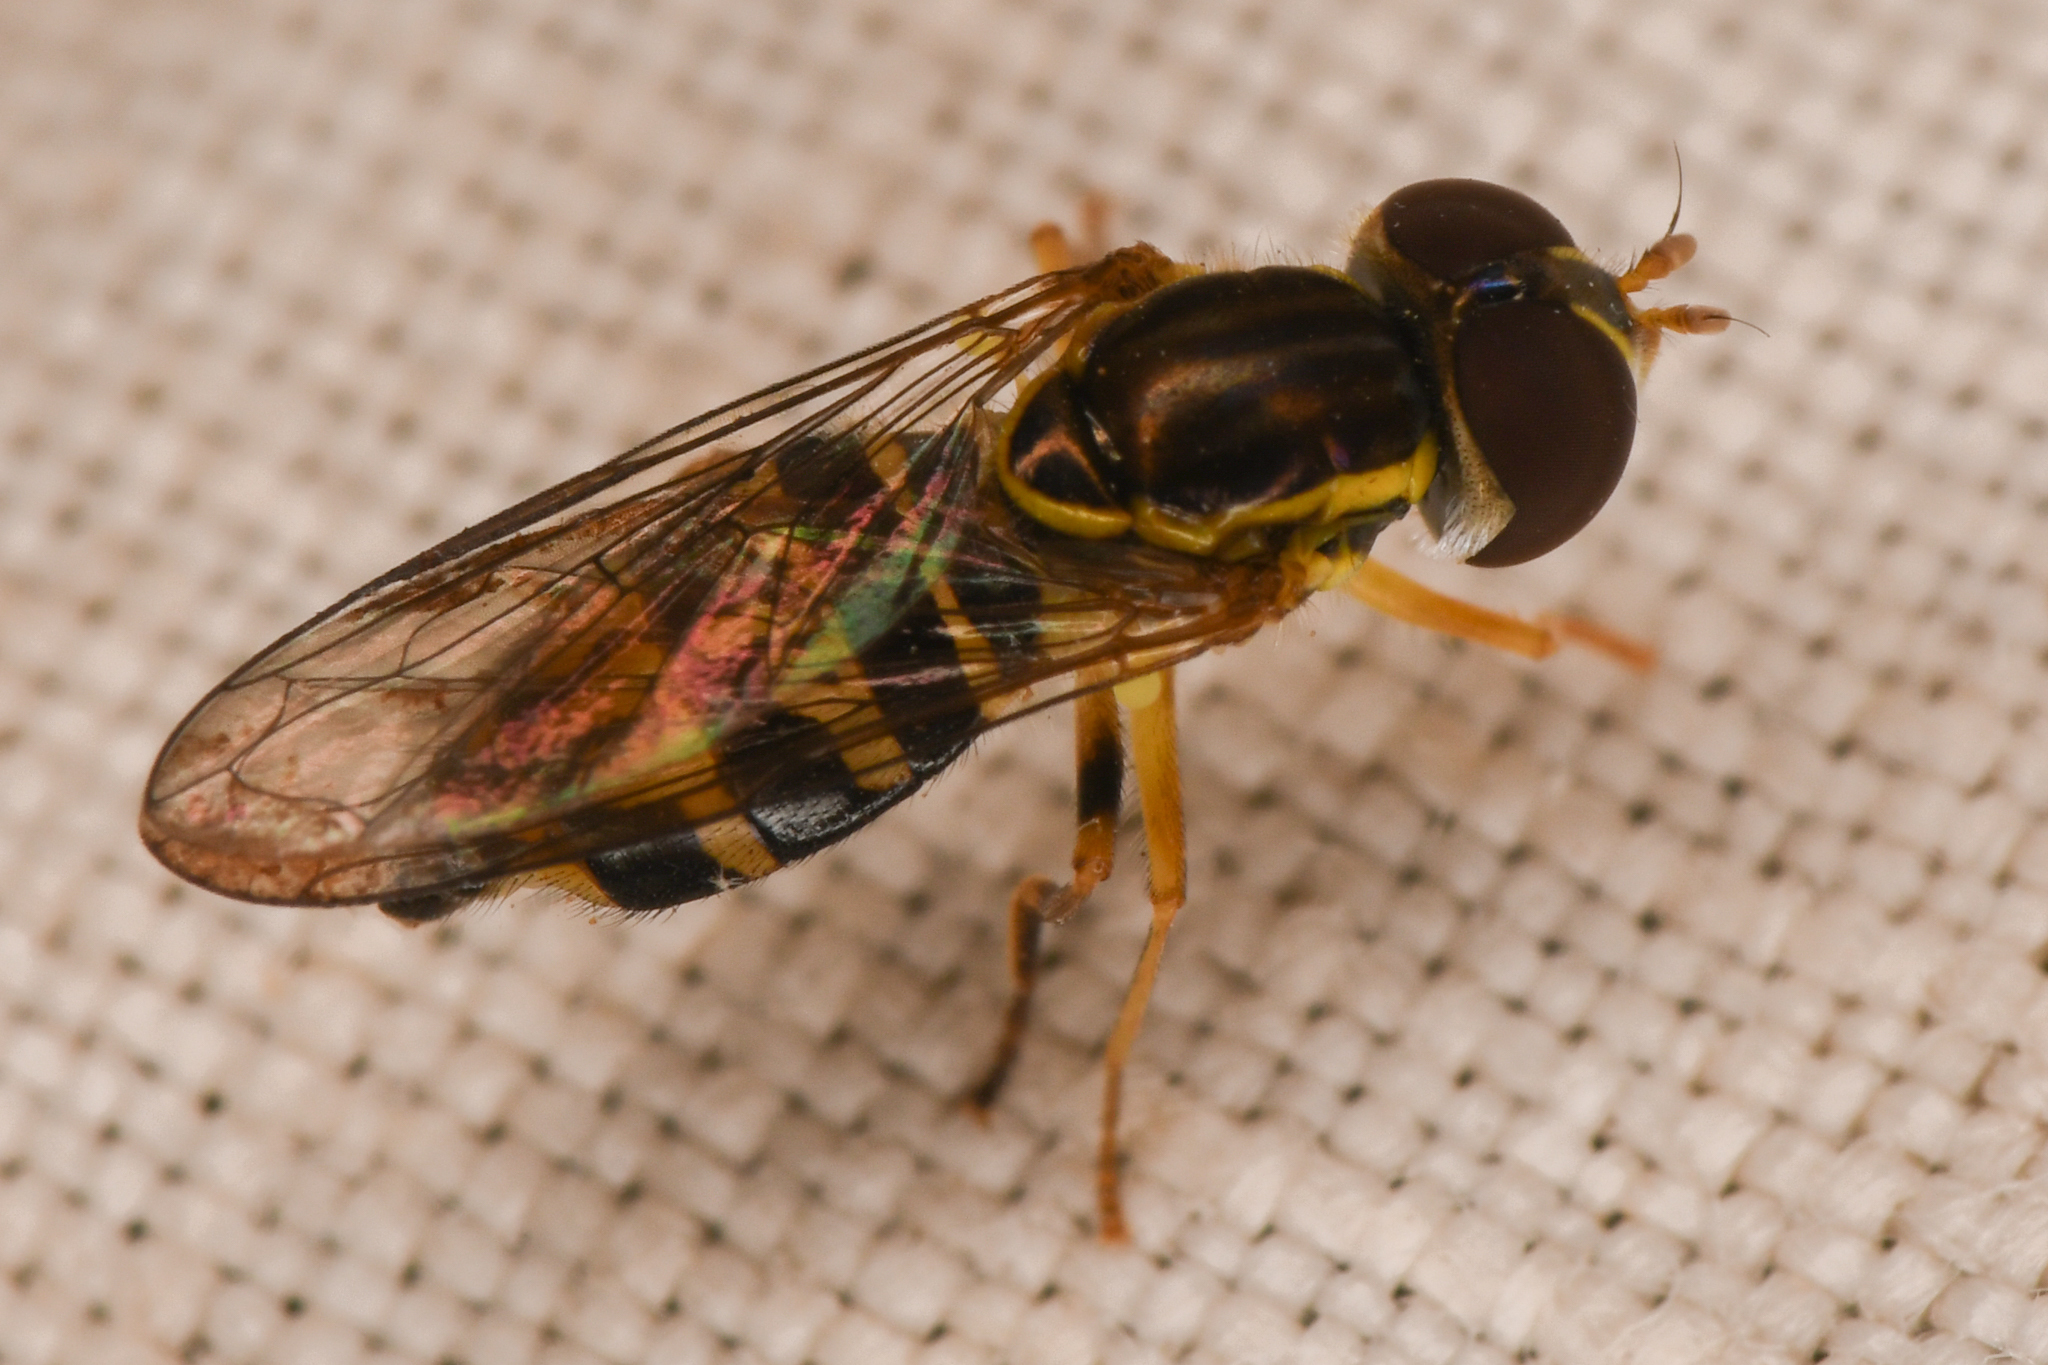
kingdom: Animalia
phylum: Arthropoda
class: Insecta
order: Diptera
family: Syrphidae
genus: Toxomerus
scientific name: Toxomerus occidentalis
